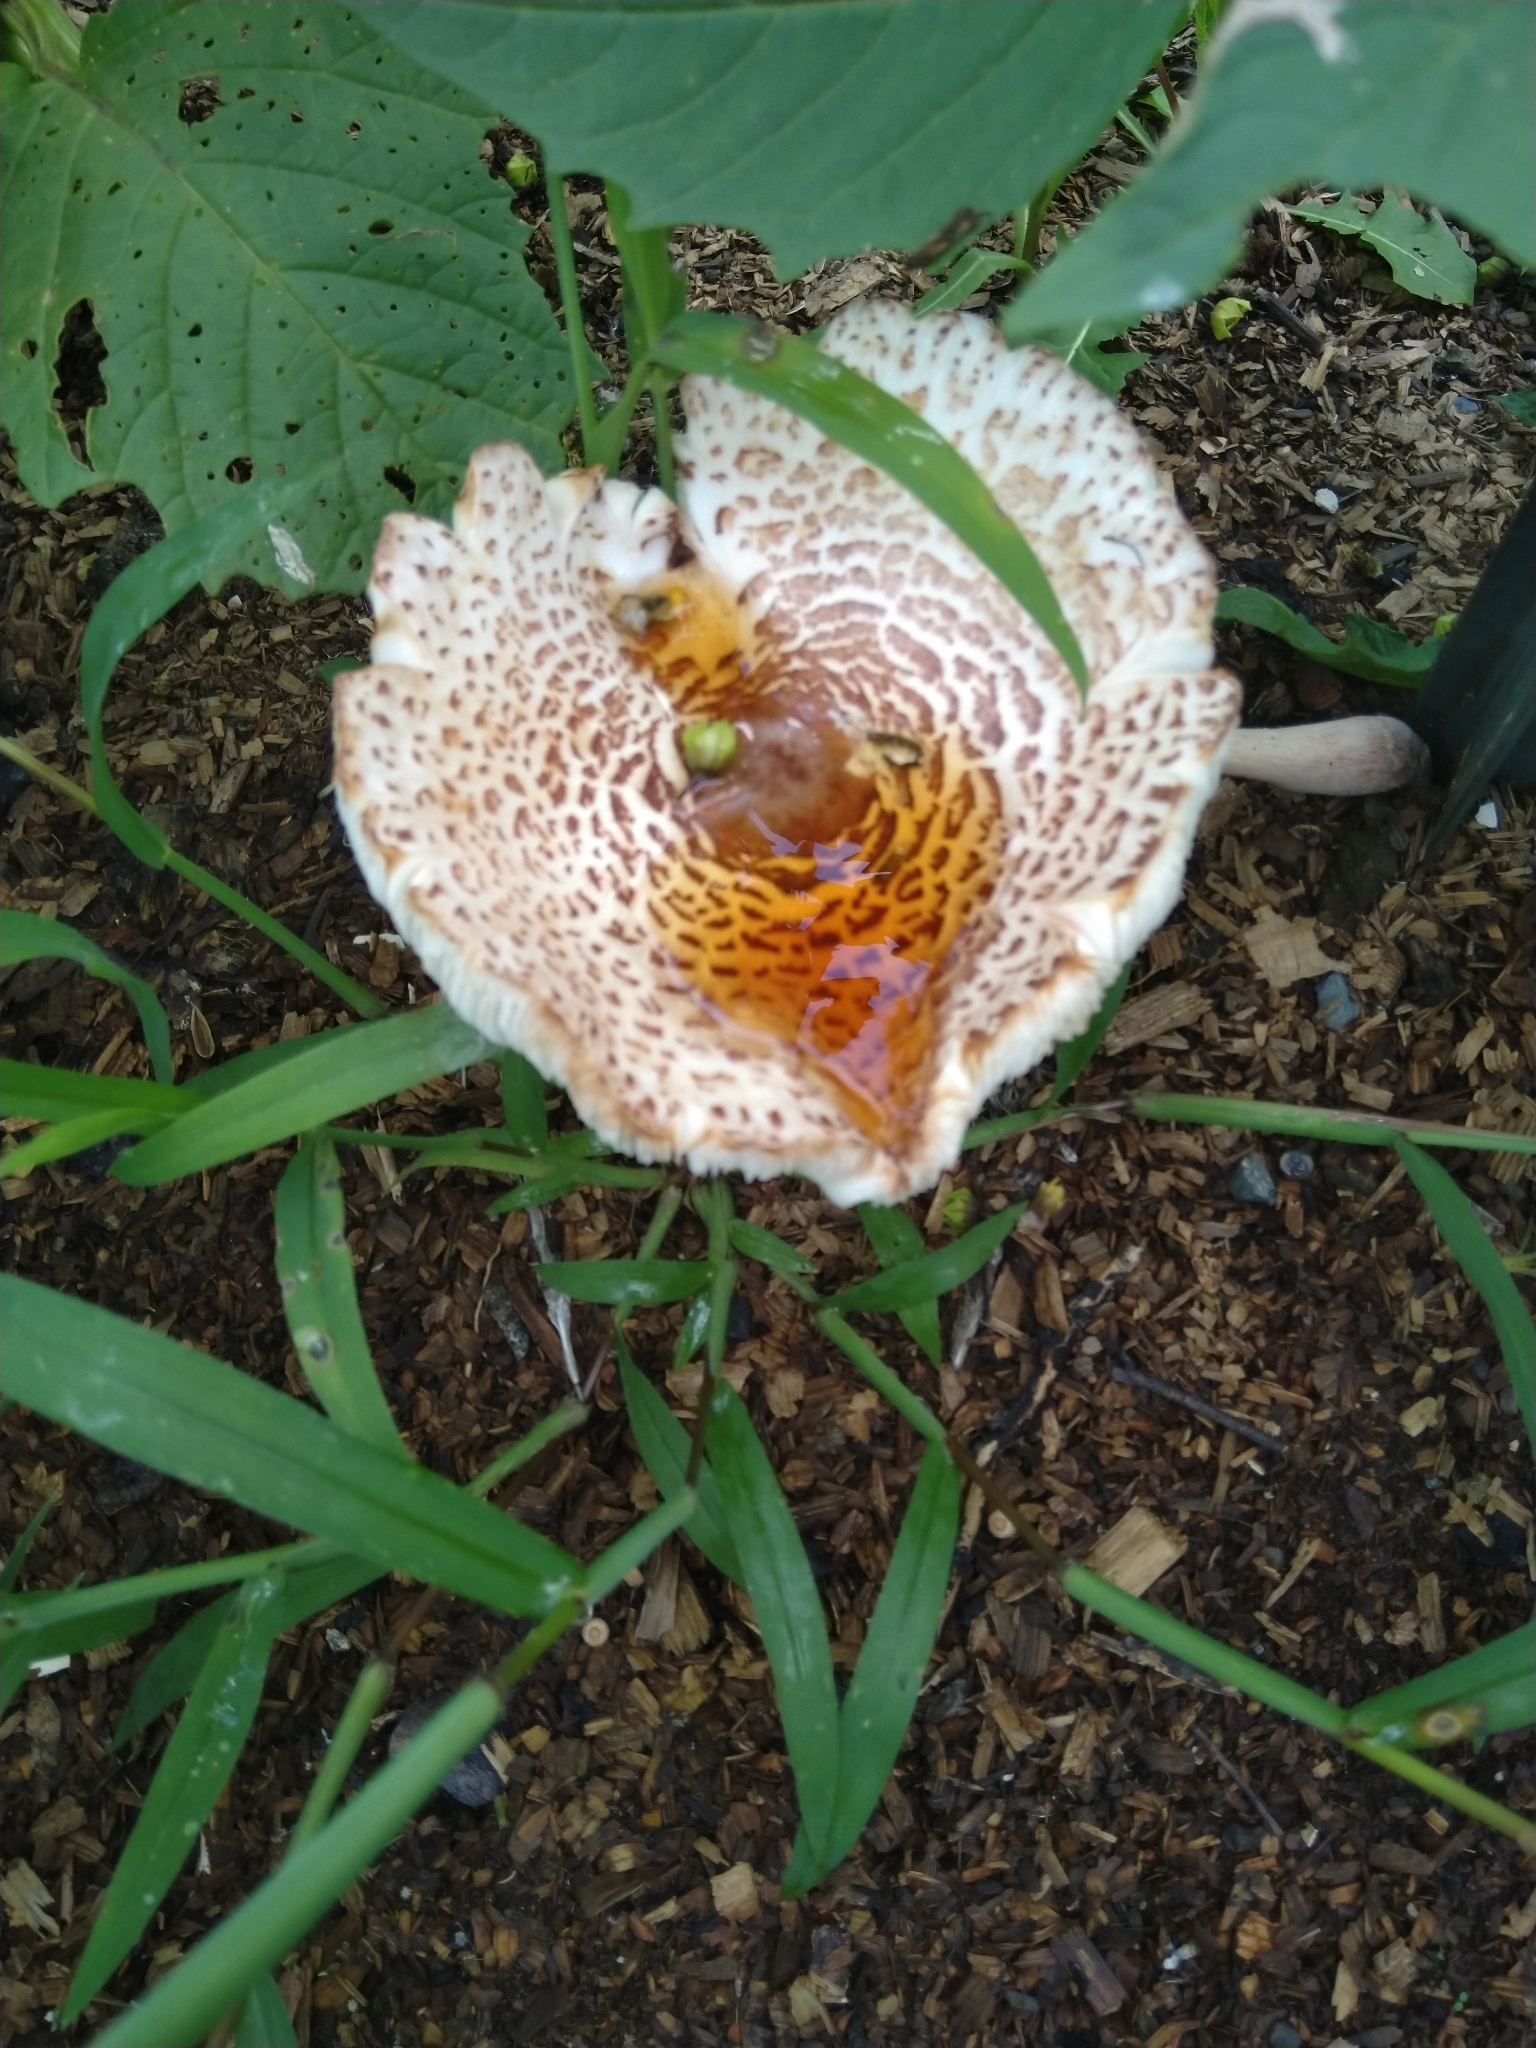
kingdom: Fungi
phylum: Basidiomycota
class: Agaricomycetes
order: Agaricales
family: Agaricaceae
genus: Leucoagaricus
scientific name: Leucoagaricus americanus
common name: Reddening lepiota
